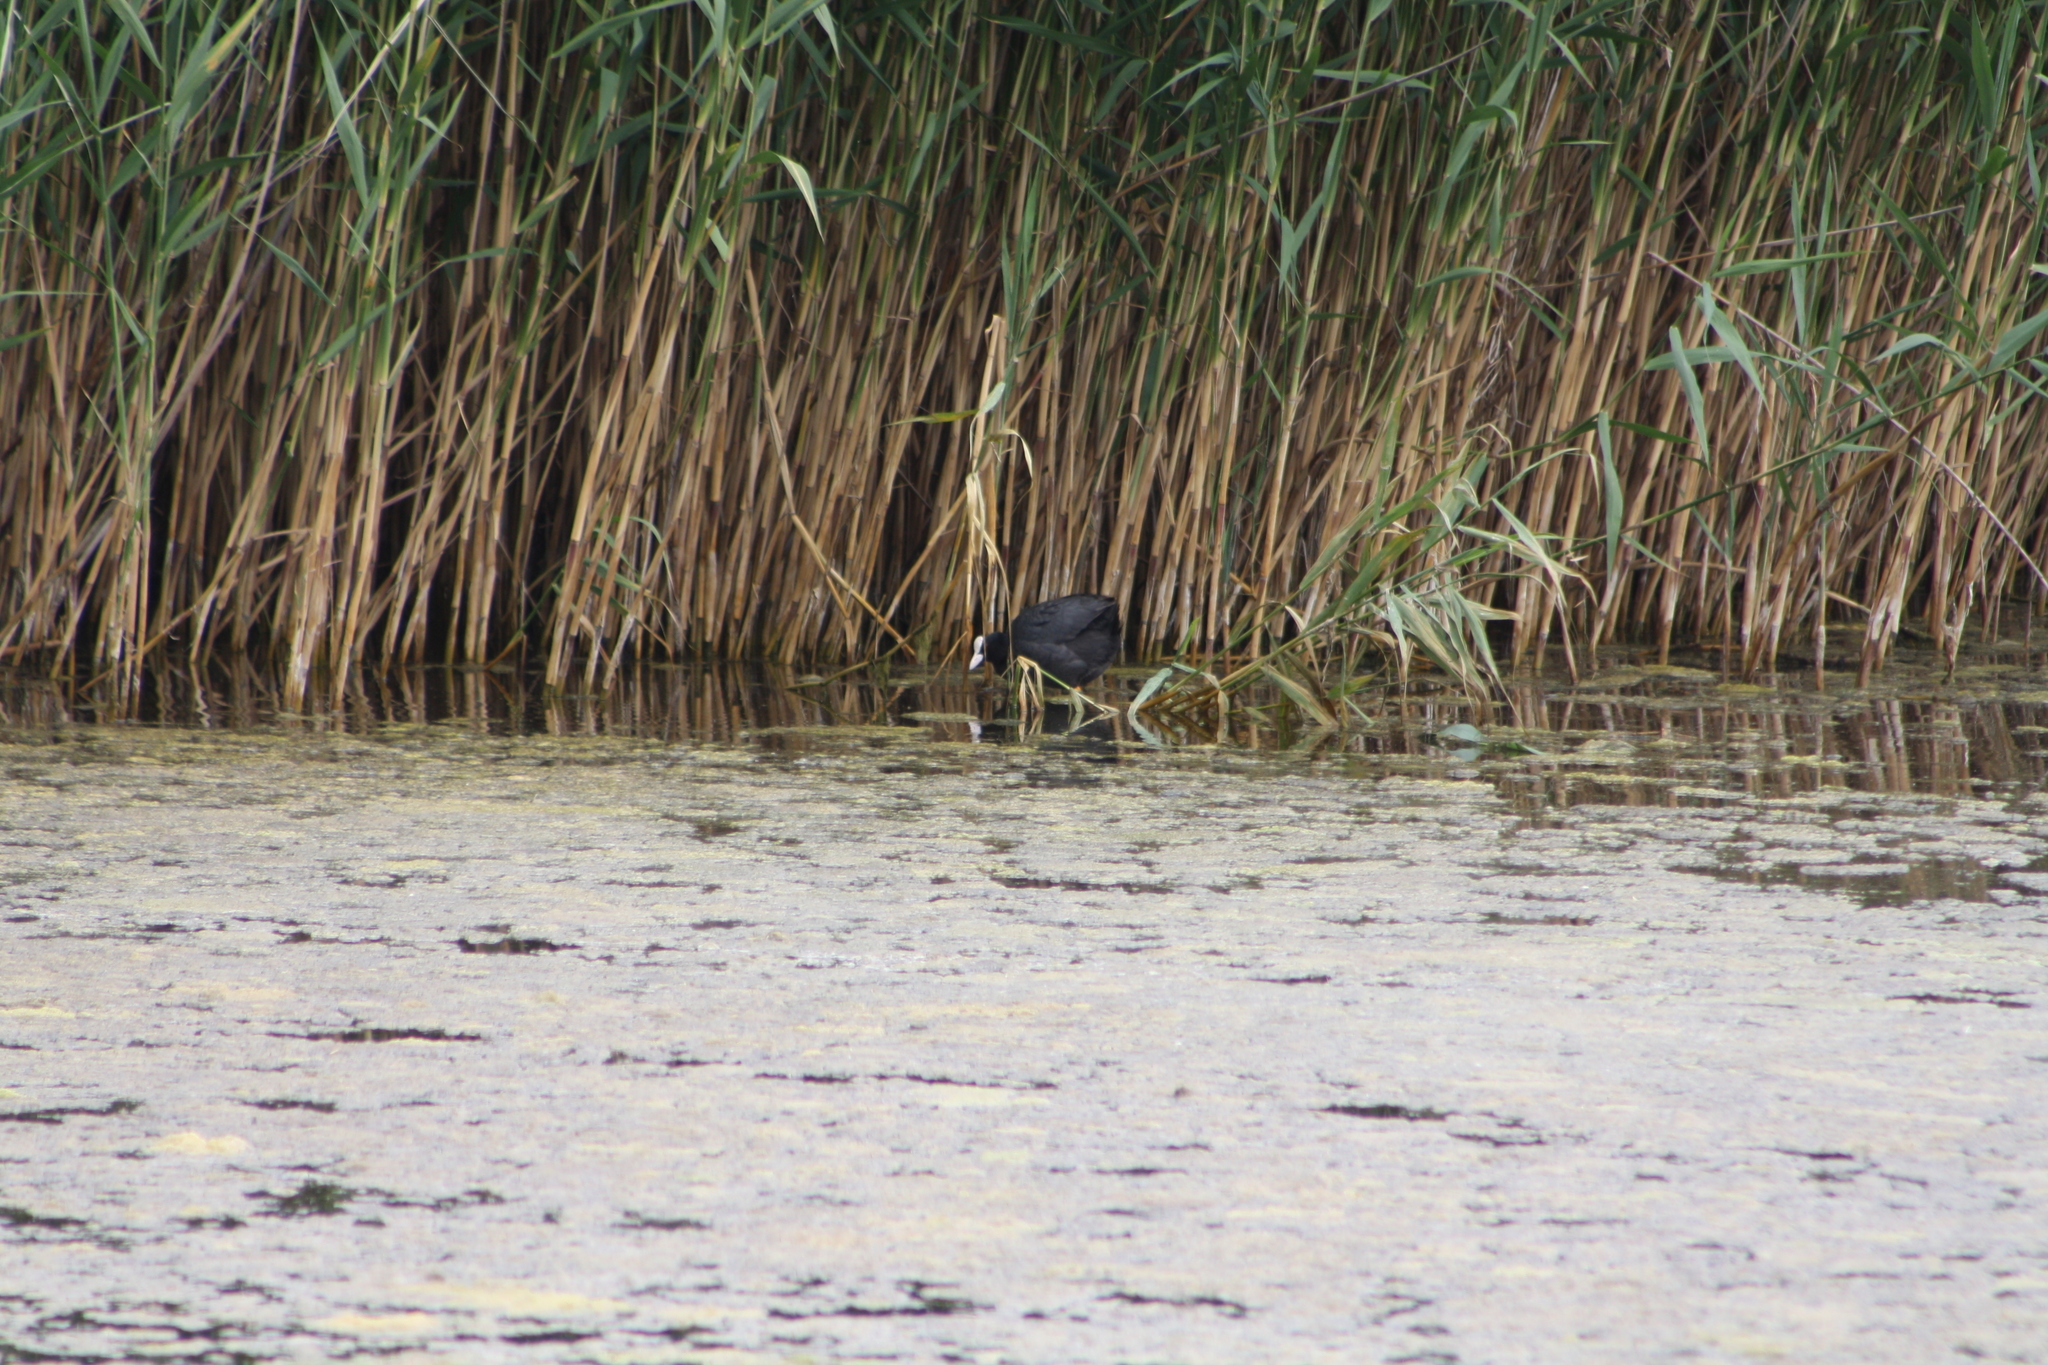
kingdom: Animalia
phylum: Chordata
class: Aves
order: Gruiformes
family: Rallidae
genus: Fulica
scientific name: Fulica atra
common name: Eurasian coot
